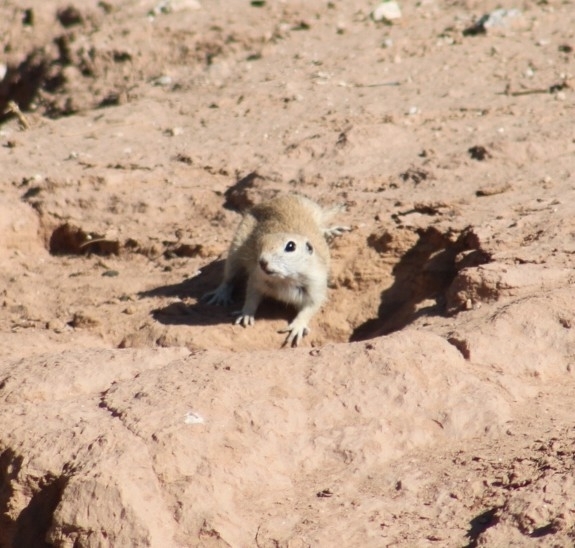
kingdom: Animalia
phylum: Chordata
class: Mammalia
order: Rodentia
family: Sciuridae
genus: Xerospermophilus
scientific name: Xerospermophilus tereticaudus
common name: Round-tailed ground squirrel
